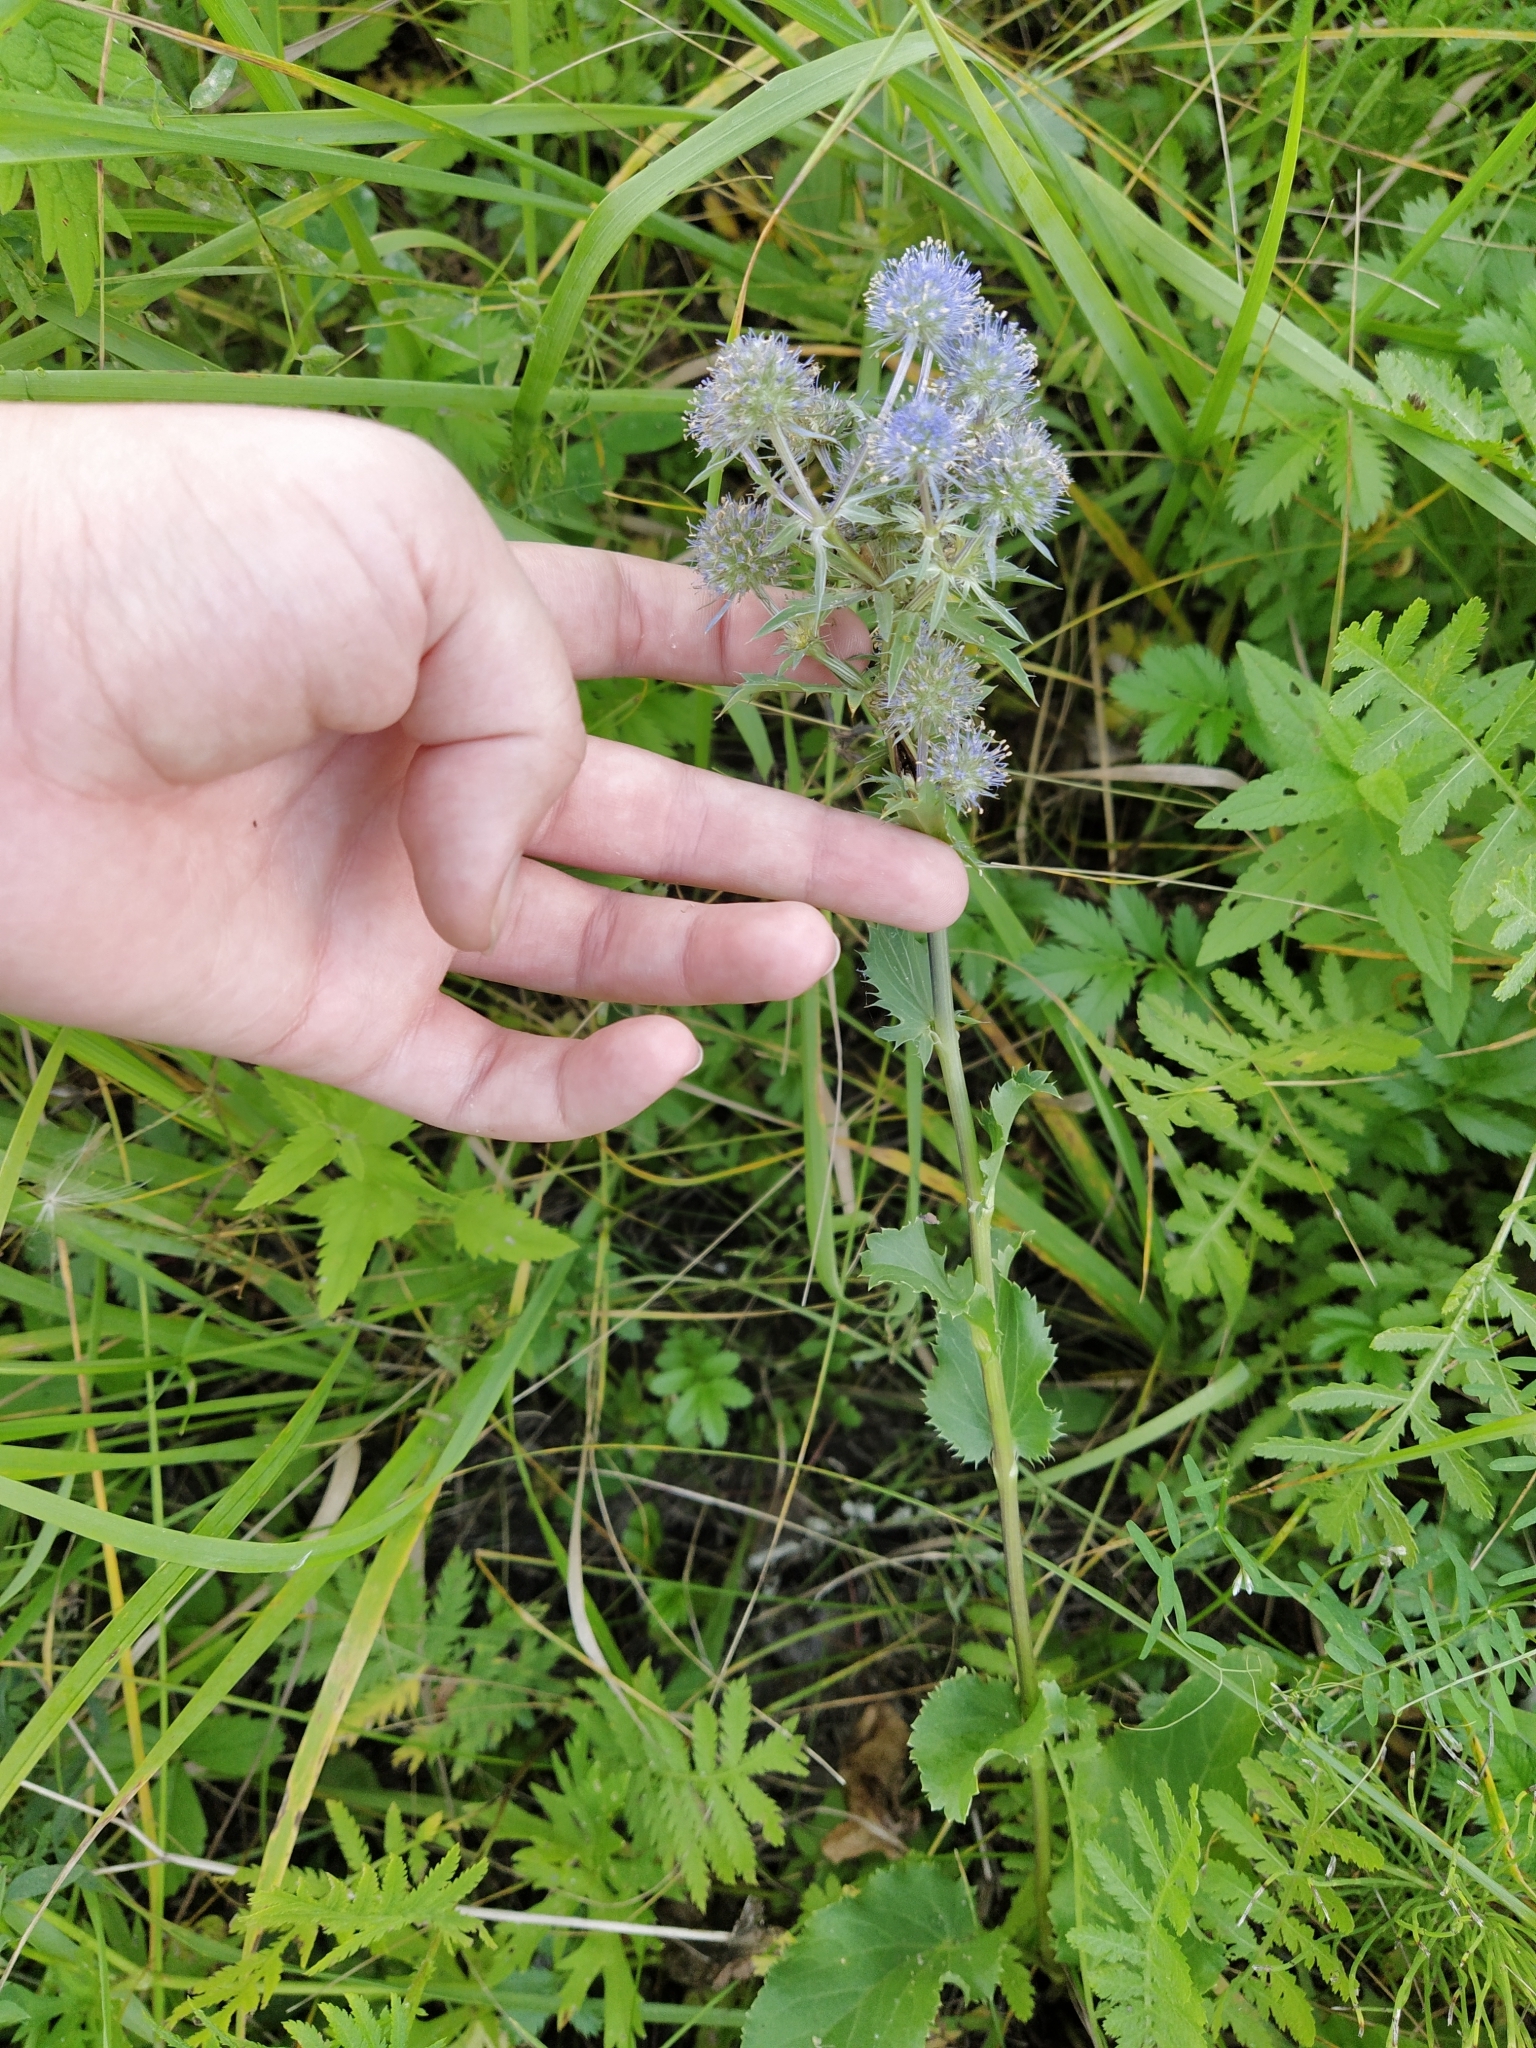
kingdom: Plantae
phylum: Tracheophyta
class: Magnoliopsida
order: Apiales
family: Apiaceae
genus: Eryngium
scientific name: Eryngium planum
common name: Blue eryngo
